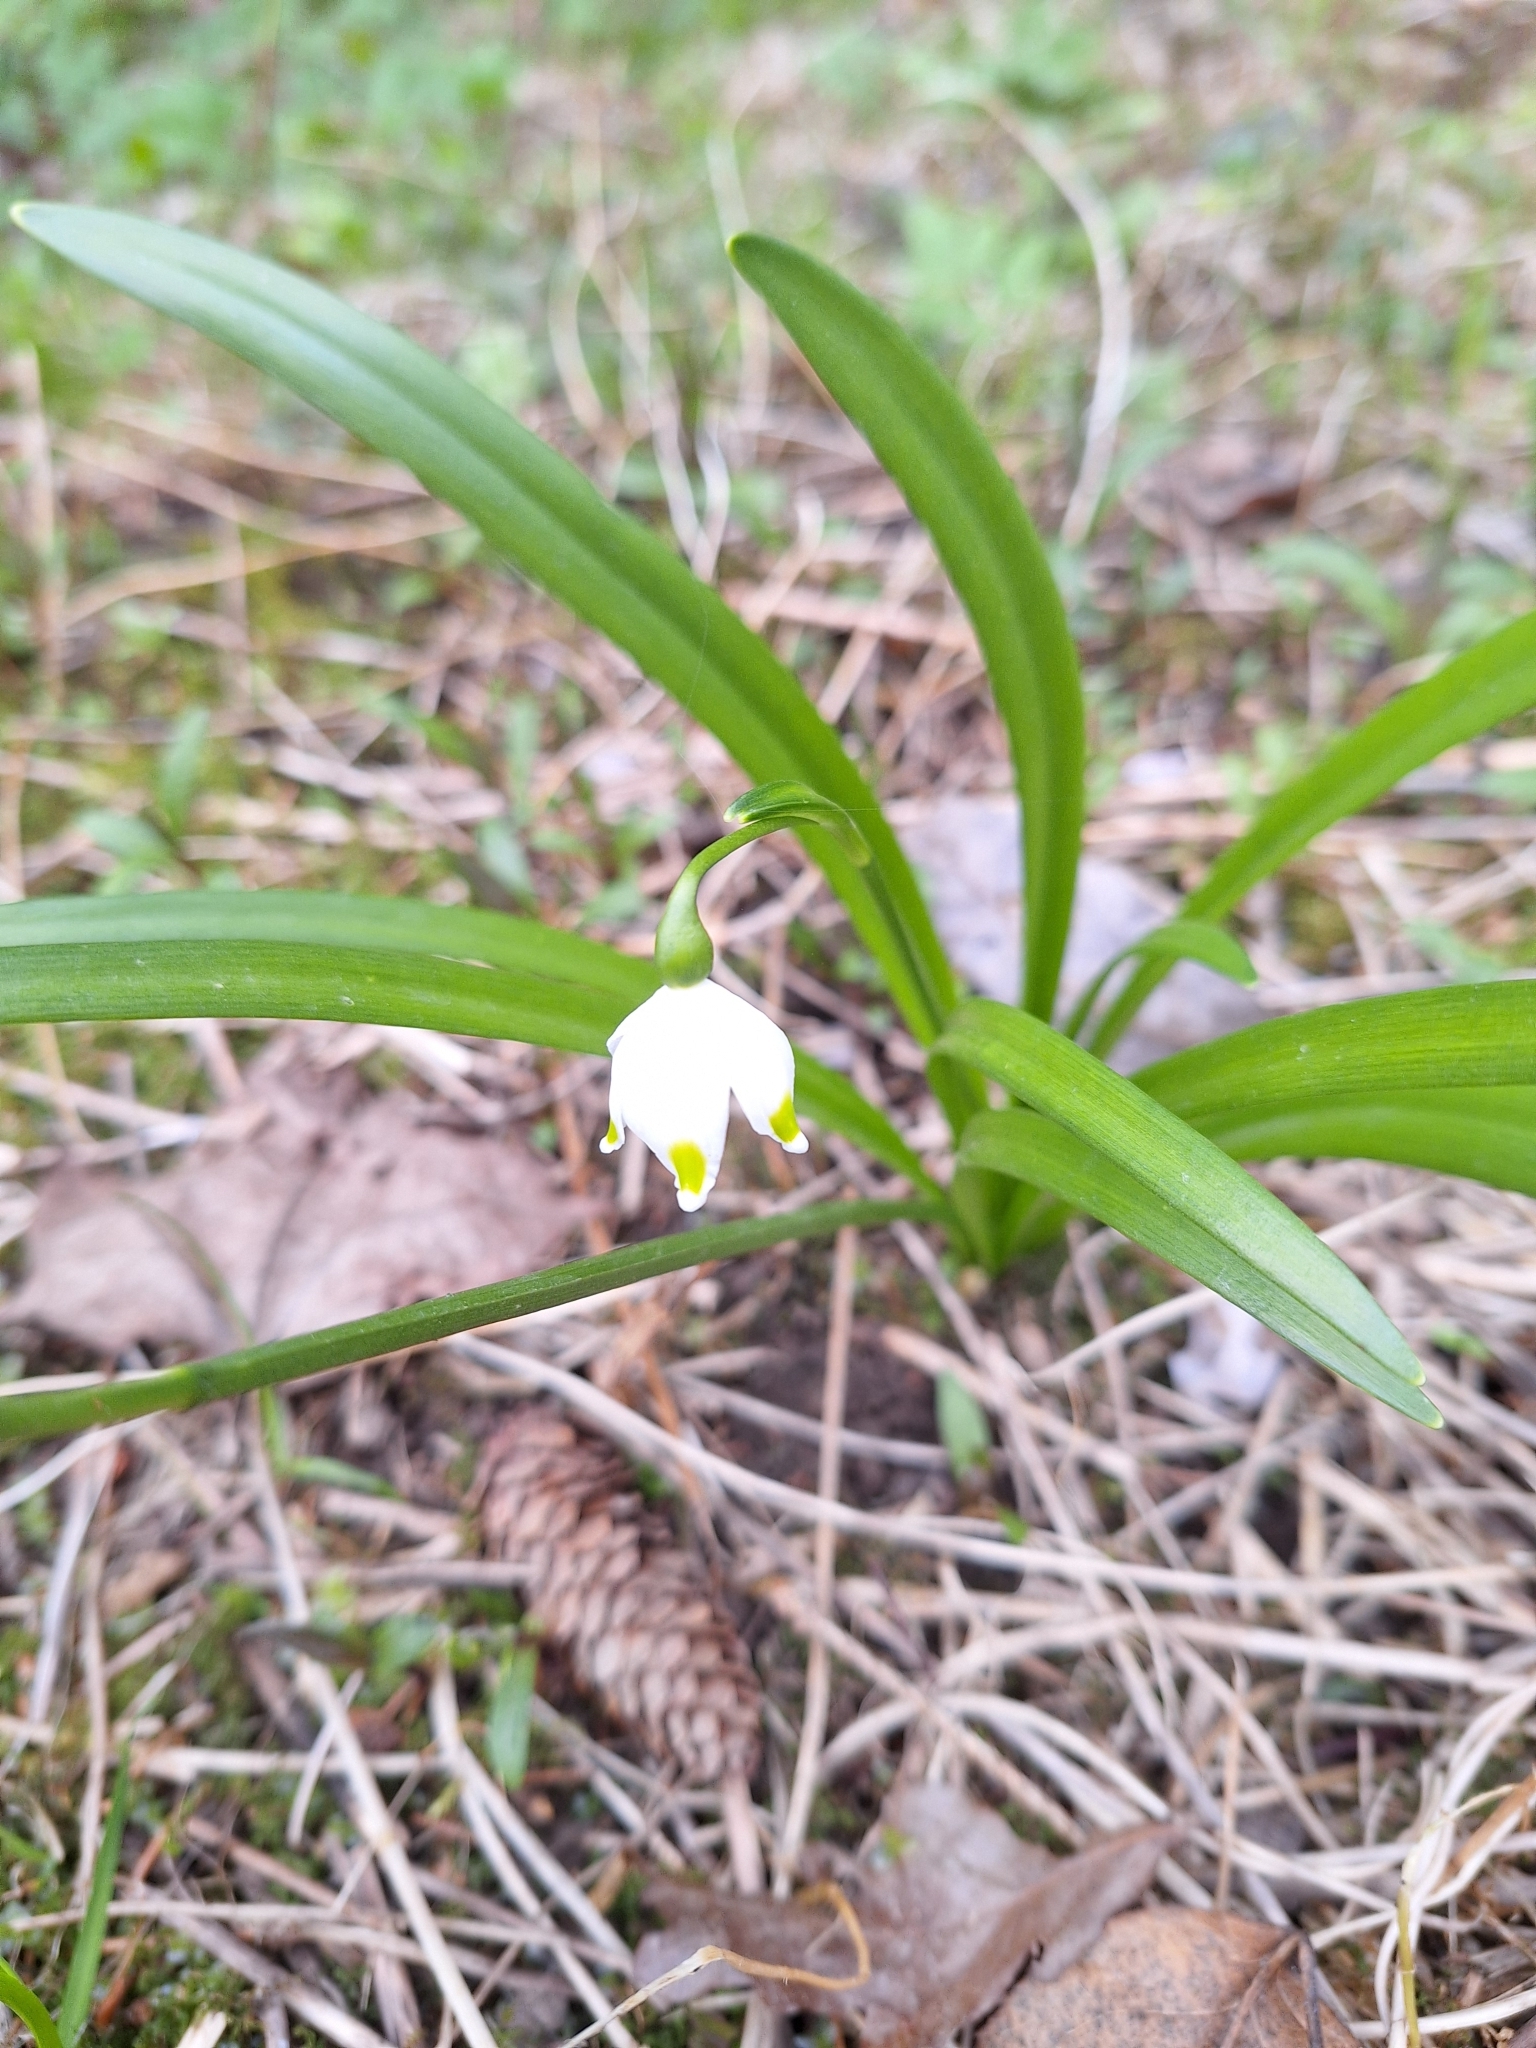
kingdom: Plantae
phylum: Tracheophyta
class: Liliopsida
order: Asparagales
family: Amaryllidaceae
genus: Leucojum
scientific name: Leucojum vernum
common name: Spring snowflake
